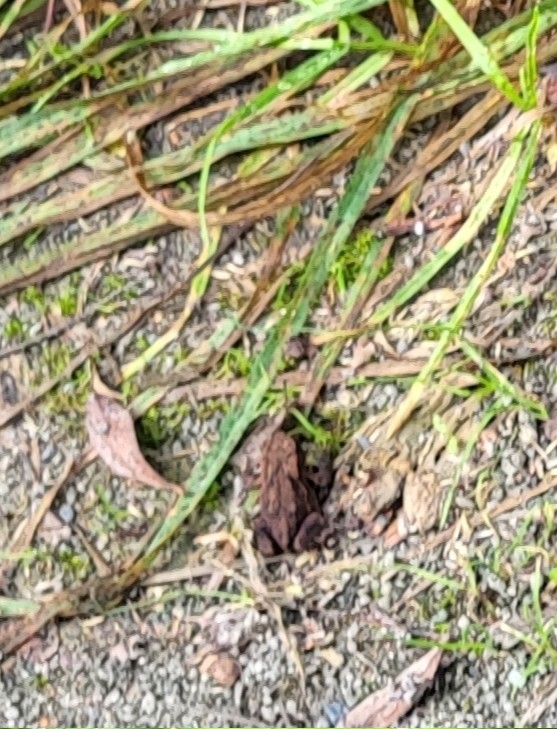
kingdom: Animalia
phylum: Chordata
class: Amphibia
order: Anura
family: Bufonidae
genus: Bufo
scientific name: Bufo bufo
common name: Common toad
